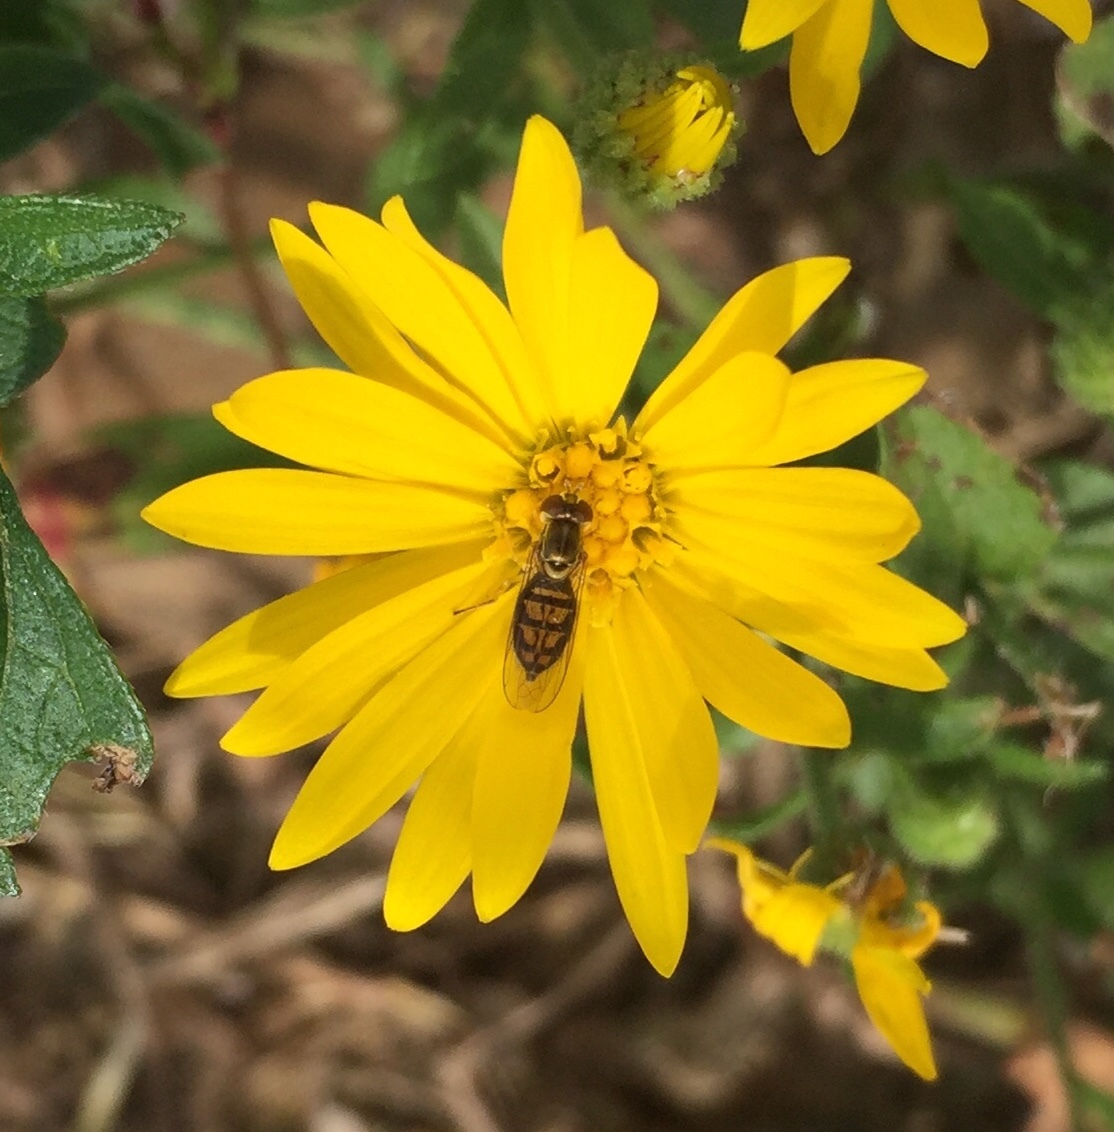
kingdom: Animalia
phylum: Arthropoda
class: Insecta
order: Diptera
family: Syrphidae
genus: Toxomerus
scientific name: Toxomerus marginatus
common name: Syrphid fly
